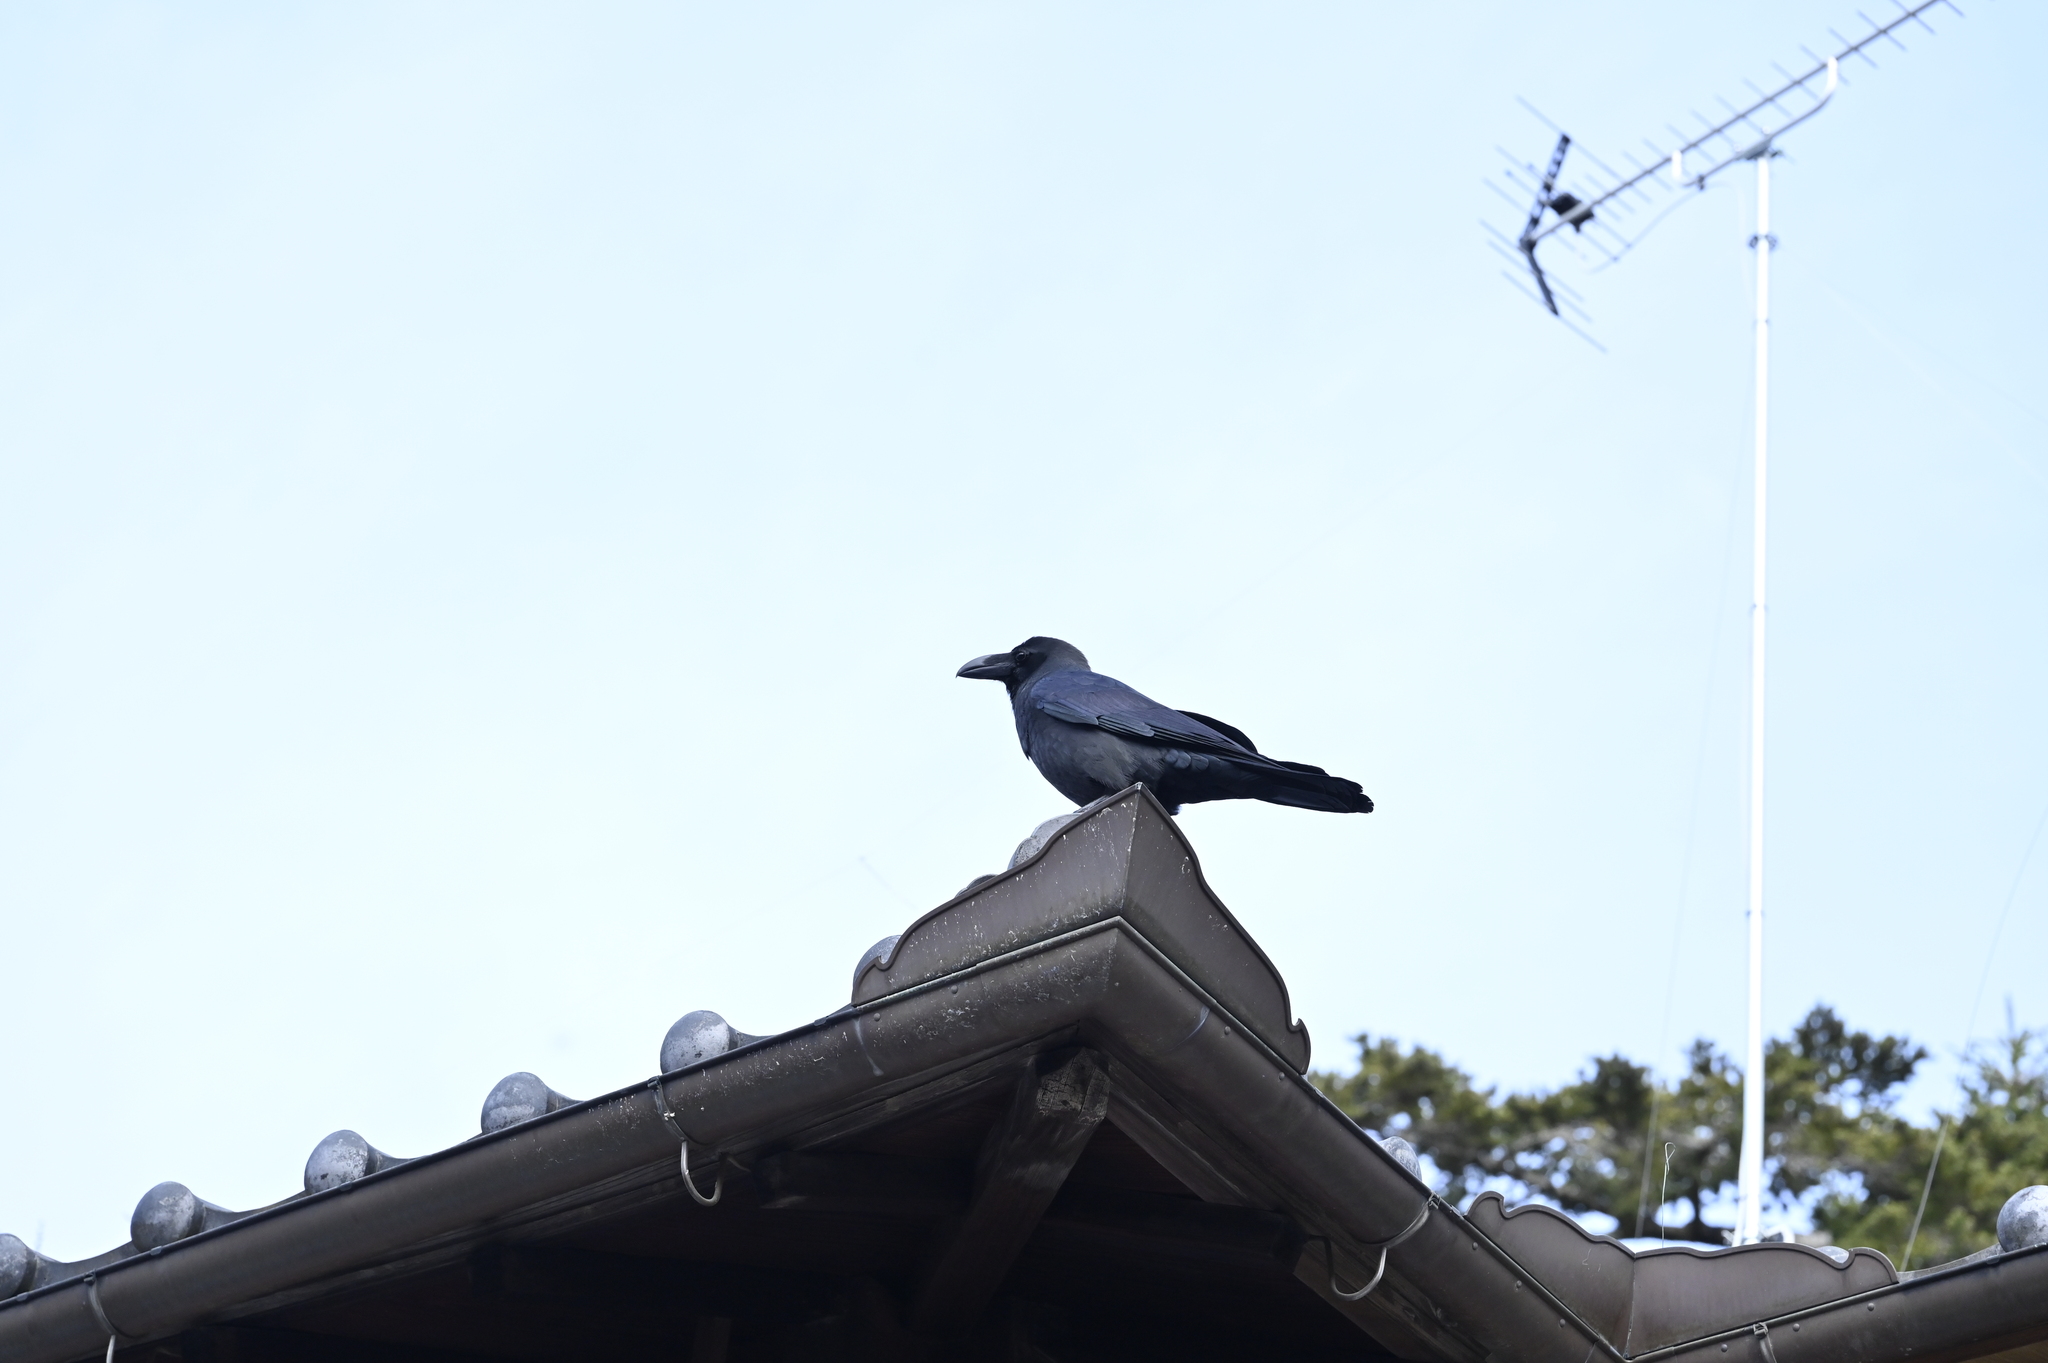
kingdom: Animalia
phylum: Chordata
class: Aves
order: Passeriformes
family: Corvidae
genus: Corvus
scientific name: Corvus macrorhynchos
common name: Large-billed crow
